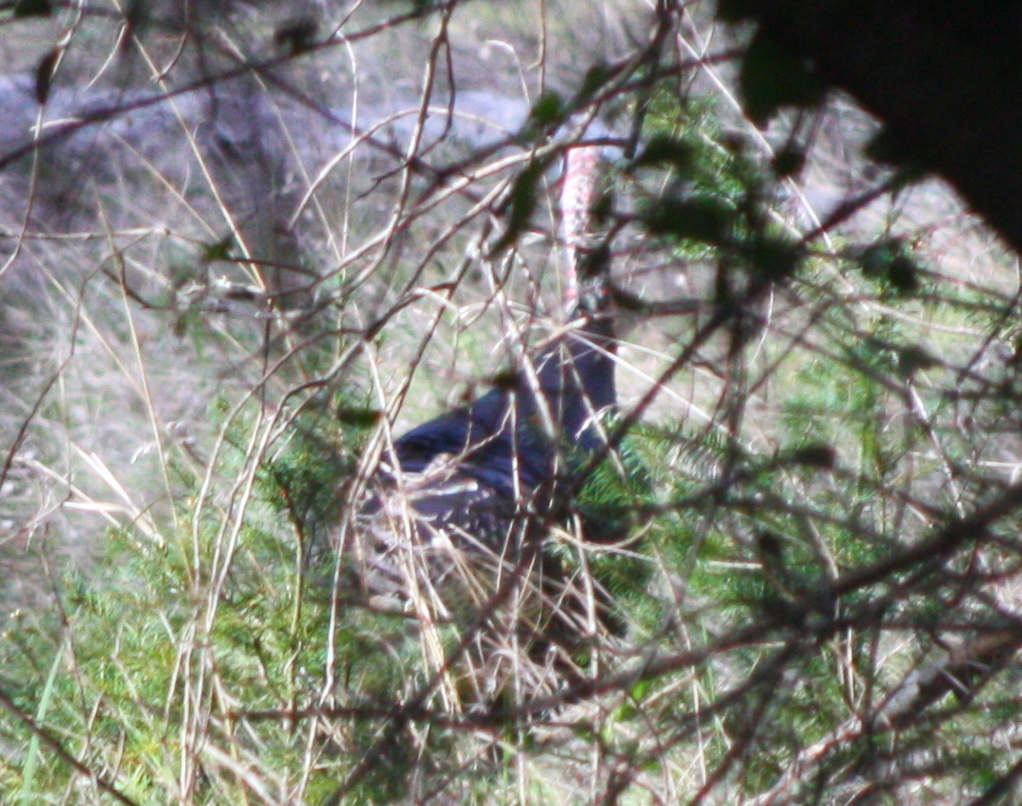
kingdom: Animalia
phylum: Chordata
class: Aves
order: Galliformes
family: Phasianidae
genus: Meleagris
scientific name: Meleagris gallopavo
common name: Wild turkey
